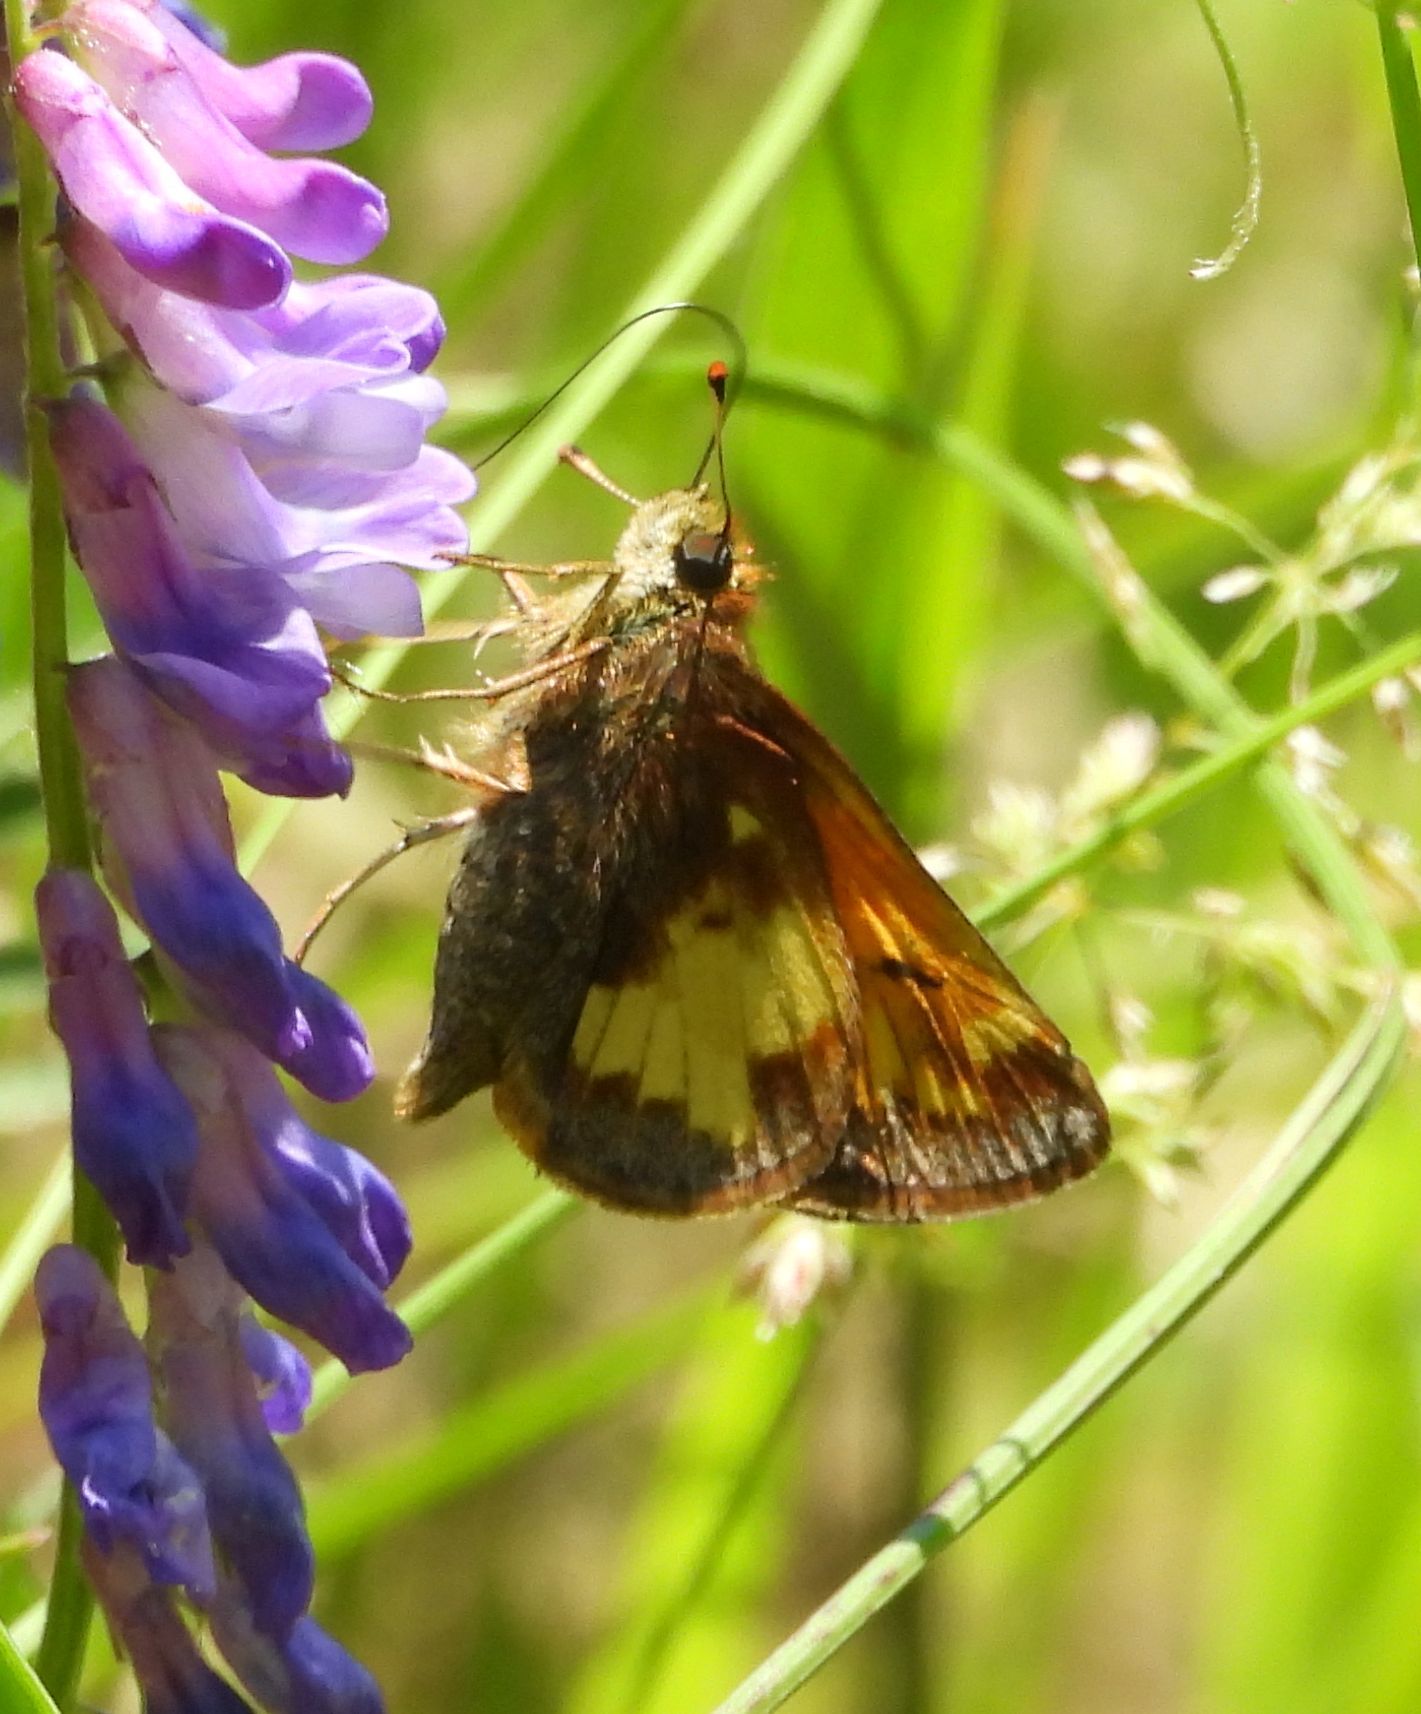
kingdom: Animalia
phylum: Arthropoda
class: Insecta
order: Lepidoptera
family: Hesperiidae
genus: Lon
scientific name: Lon hobomok
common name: Hobomok skipper
